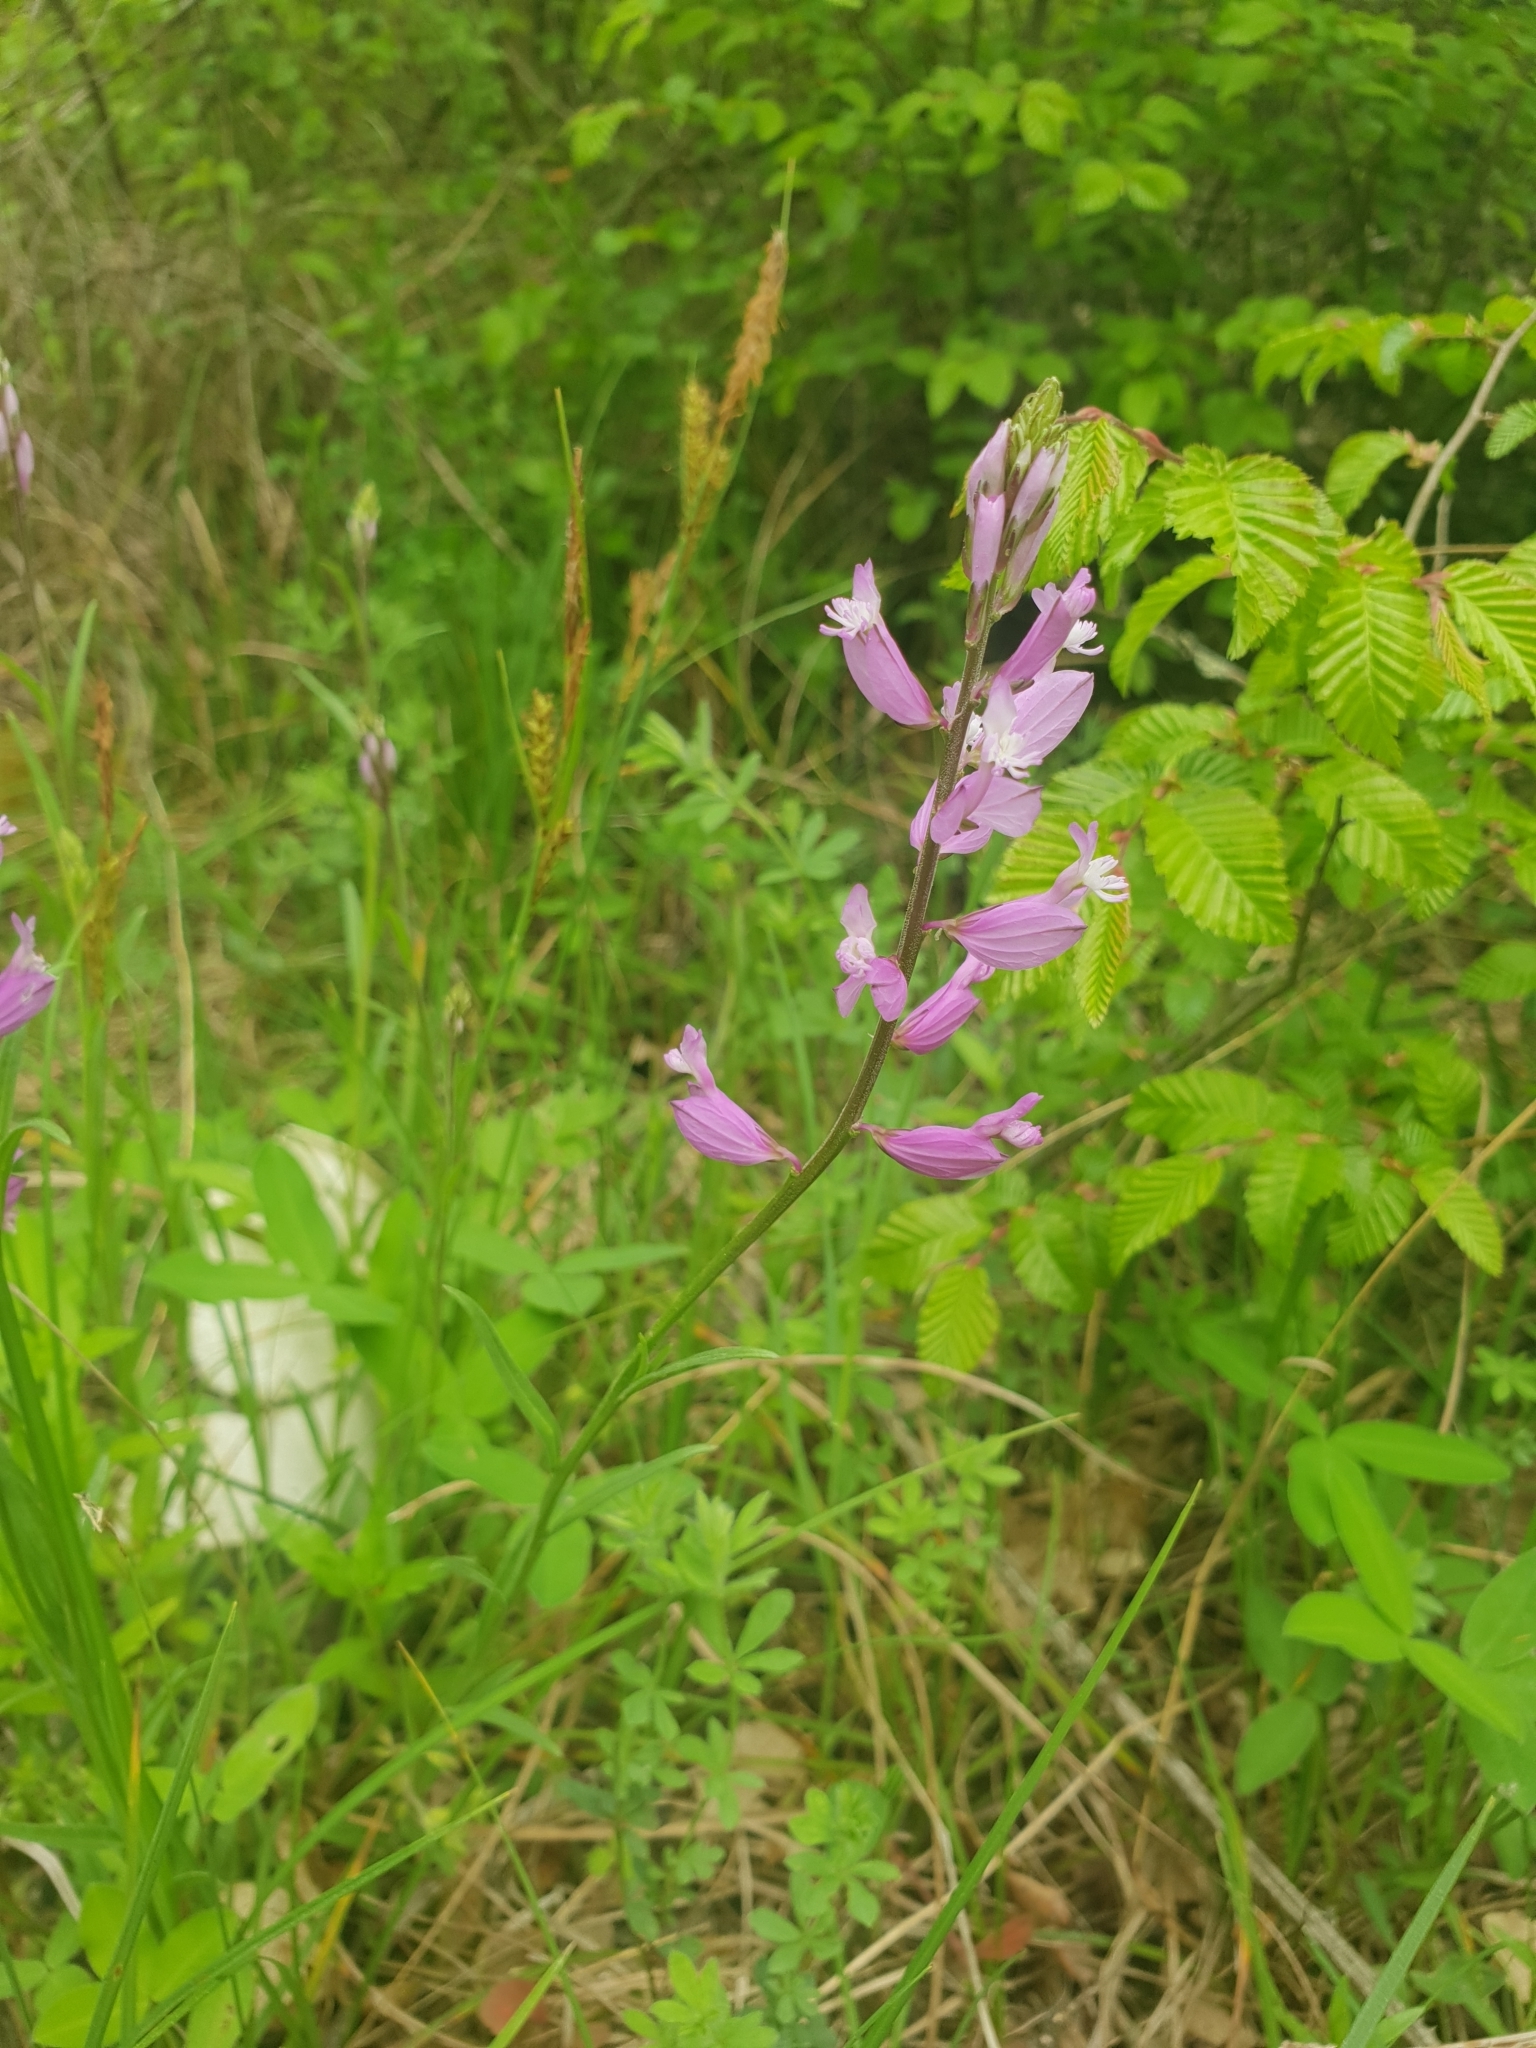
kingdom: Plantae
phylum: Tracheophyta
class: Magnoliopsida
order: Fabales
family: Polygalaceae
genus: Polygala
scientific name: Polygala major
